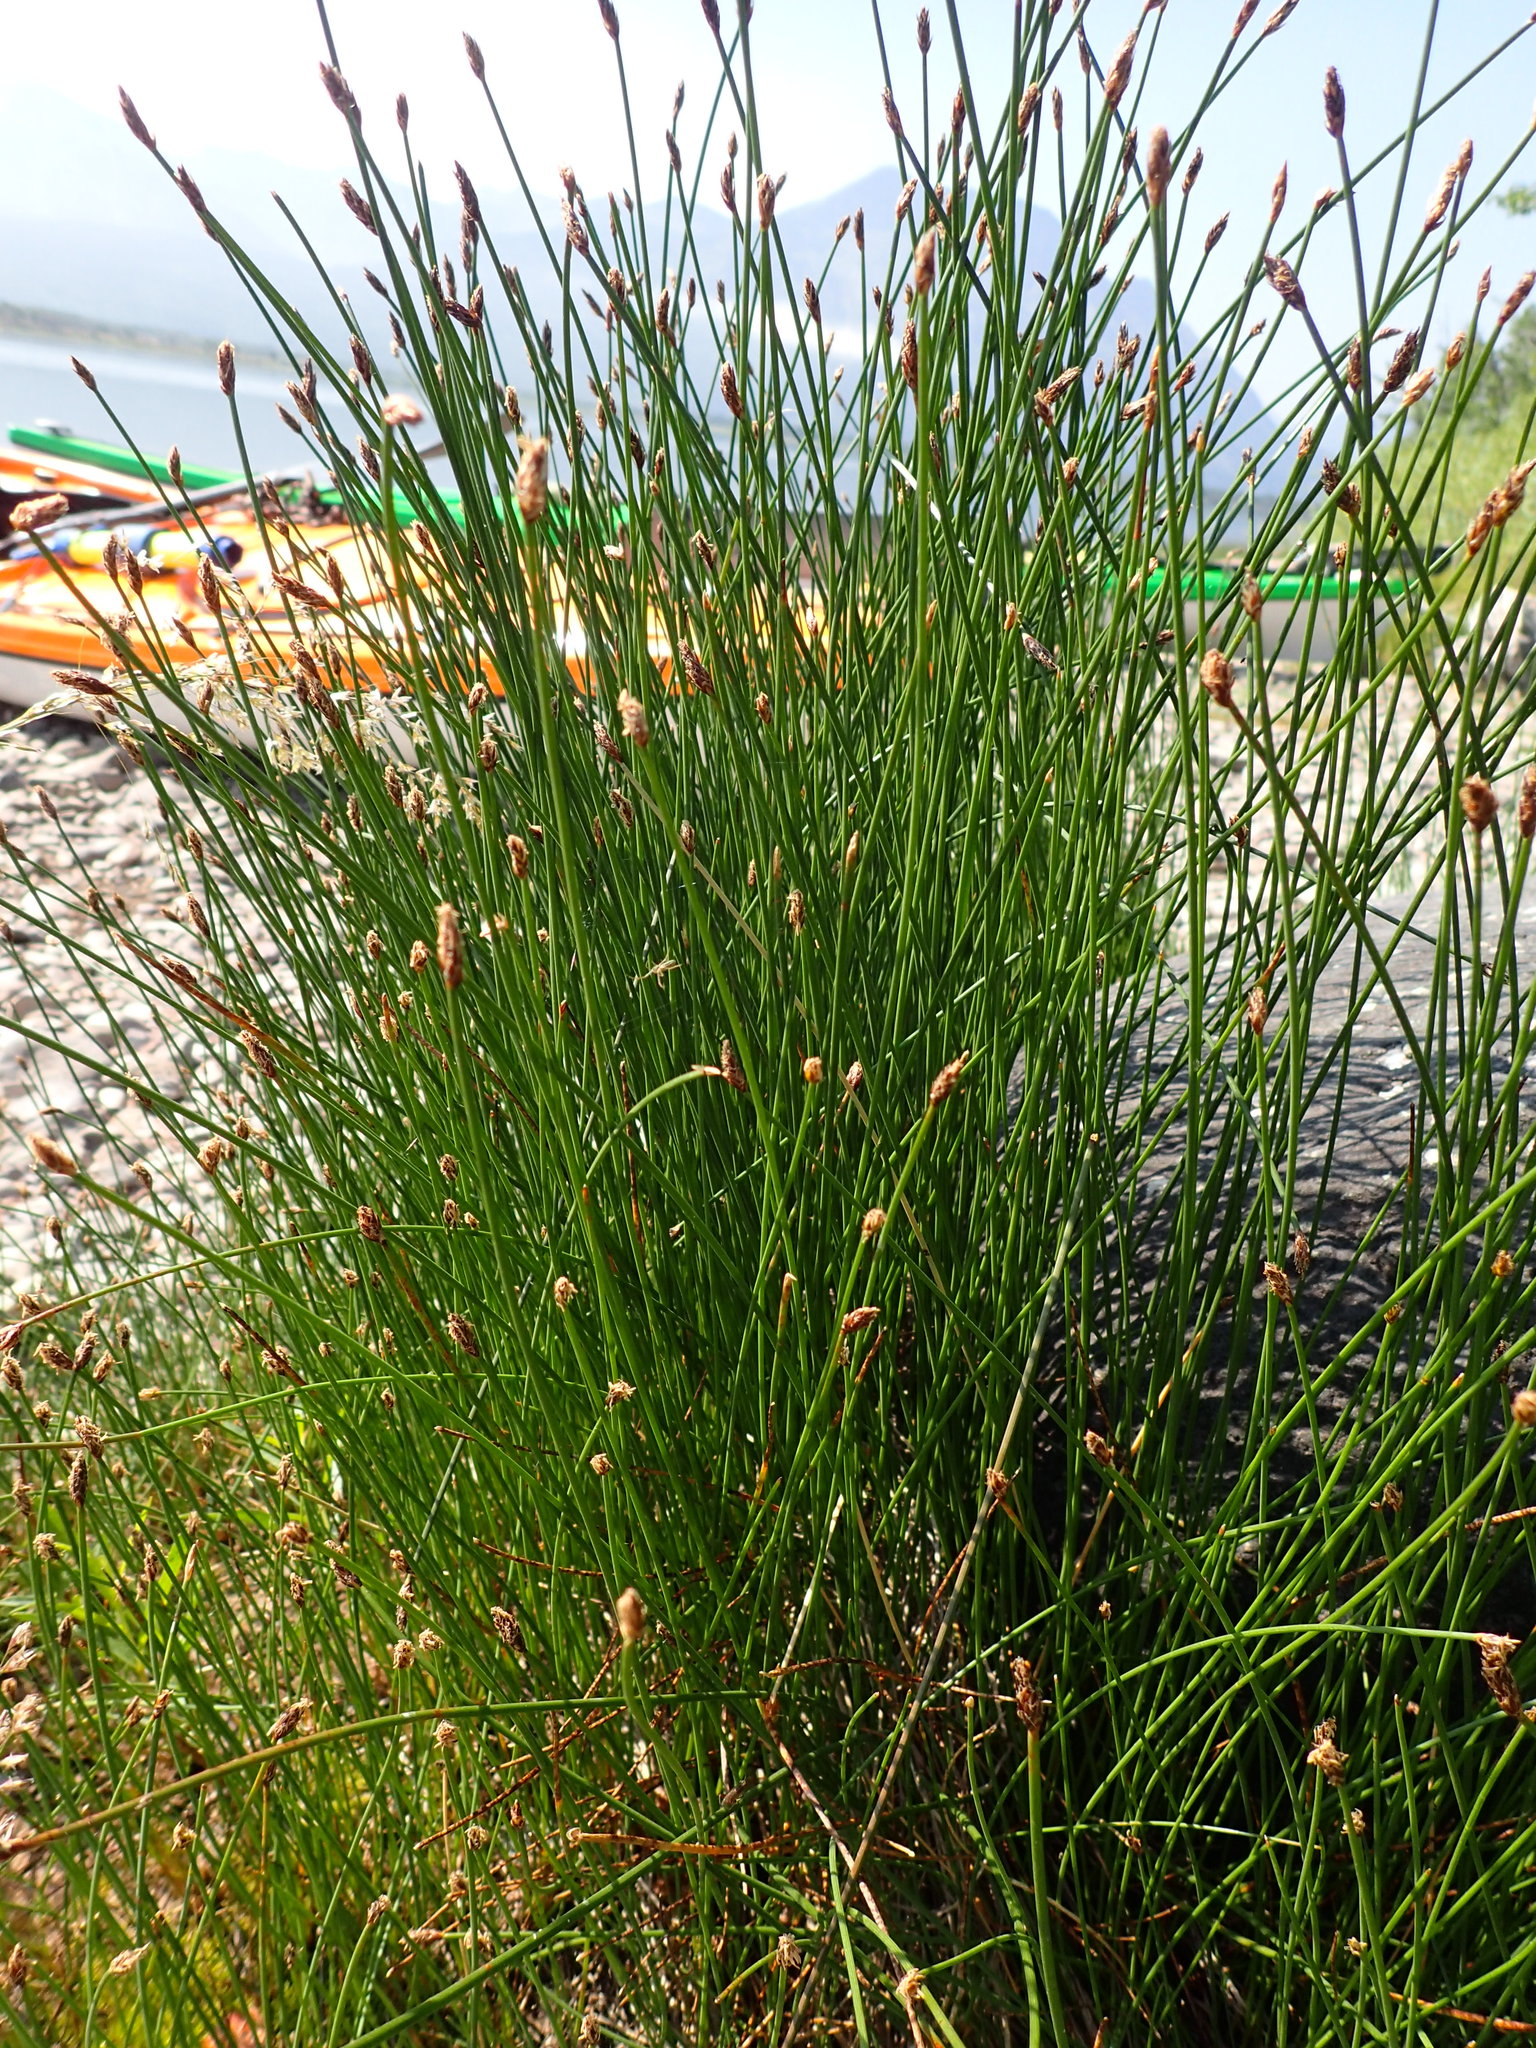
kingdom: Plantae
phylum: Tracheophyta
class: Liliopsida
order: Poales
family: Cyperaceae
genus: Eleocharis
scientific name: Eleocharis palustris
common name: Common spike-rush
